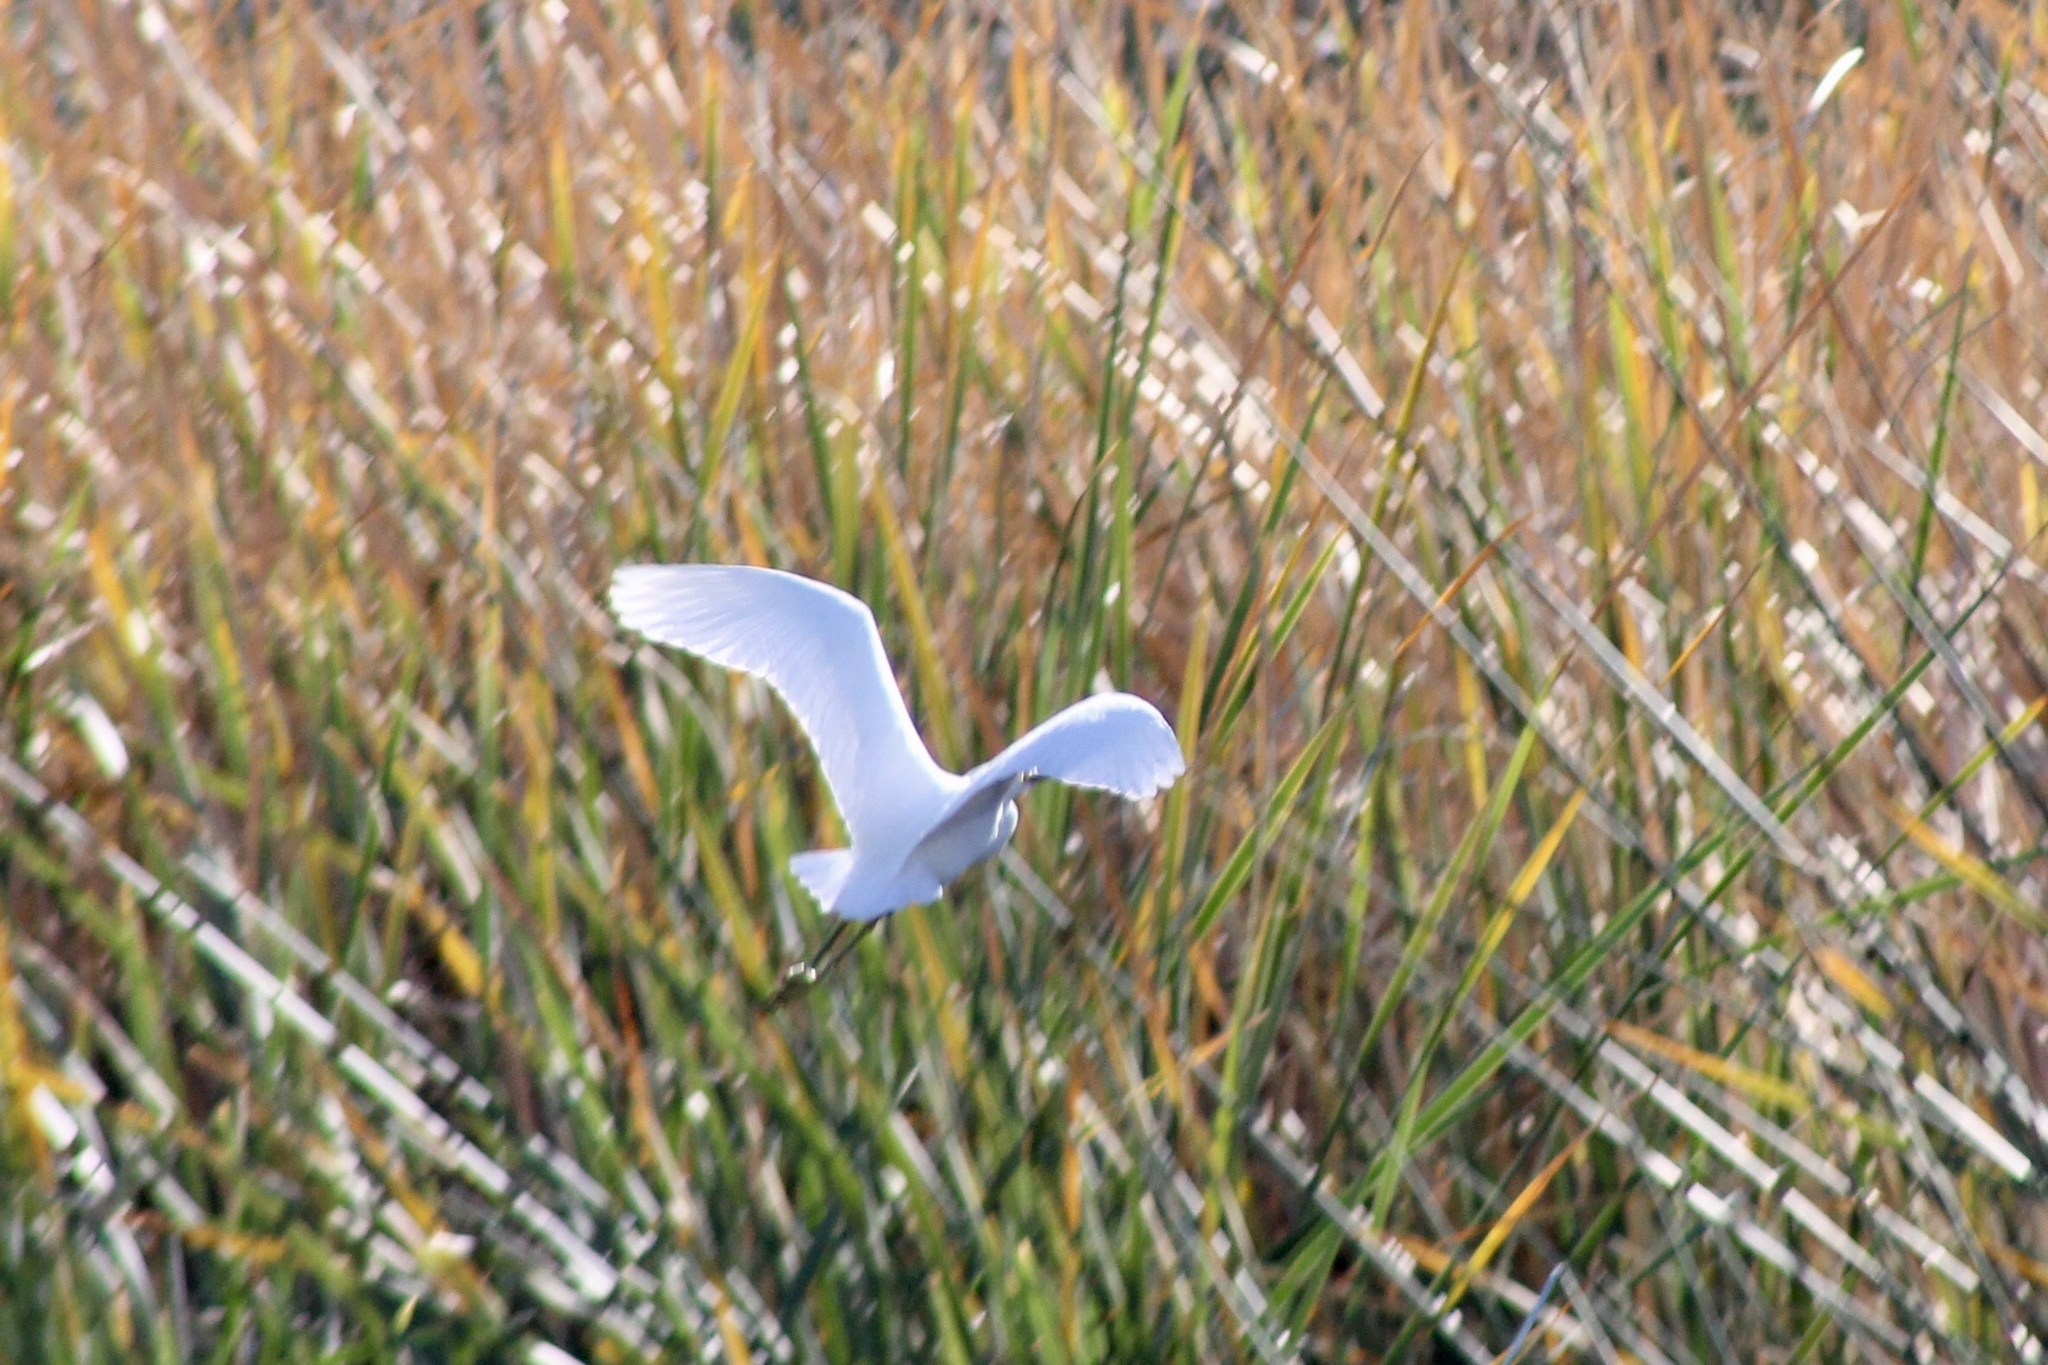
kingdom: Animalia
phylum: Chordata
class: Aves
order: Pelecaniformes
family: Ardeidae
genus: Egretta
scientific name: Egretta thula
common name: Snowy egret
